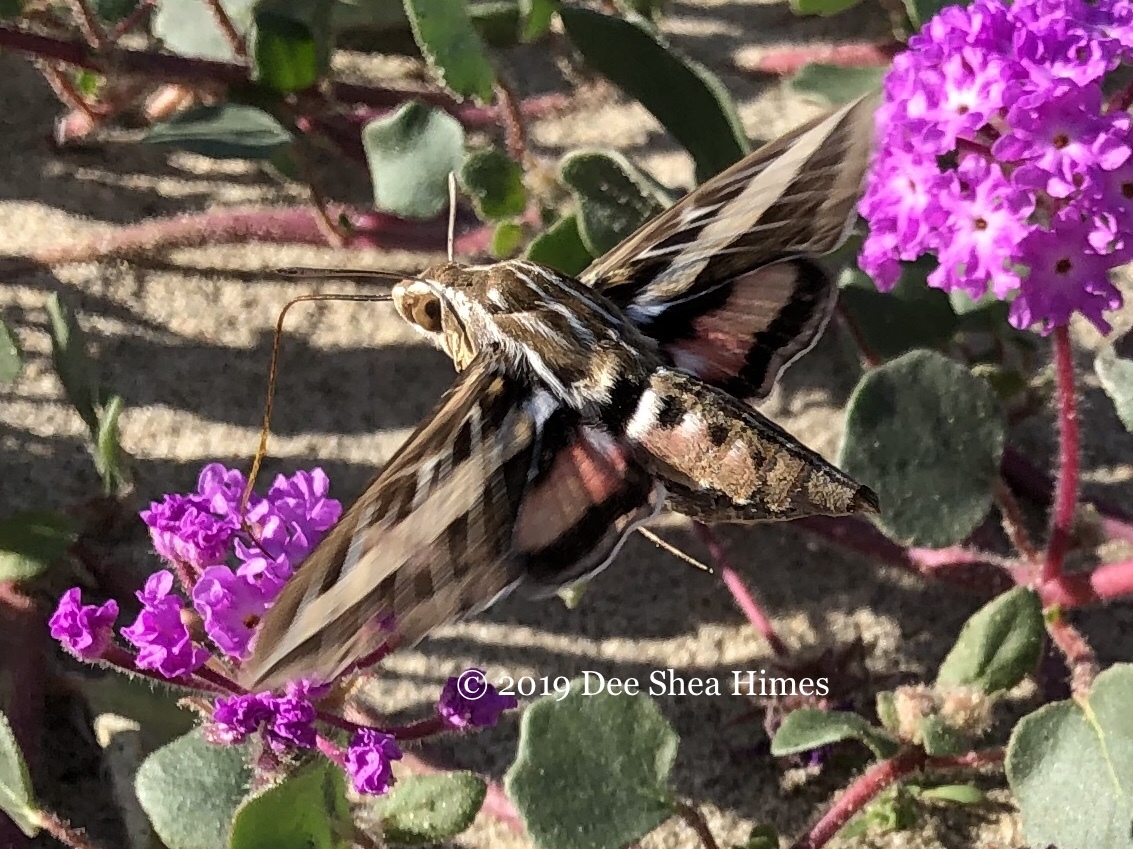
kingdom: Animalia
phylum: Arthropoda
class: Insecta
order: Lepidoptera
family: Sphingidae
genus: Hyles
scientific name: Hyles lineata
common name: White-lined sphinx
